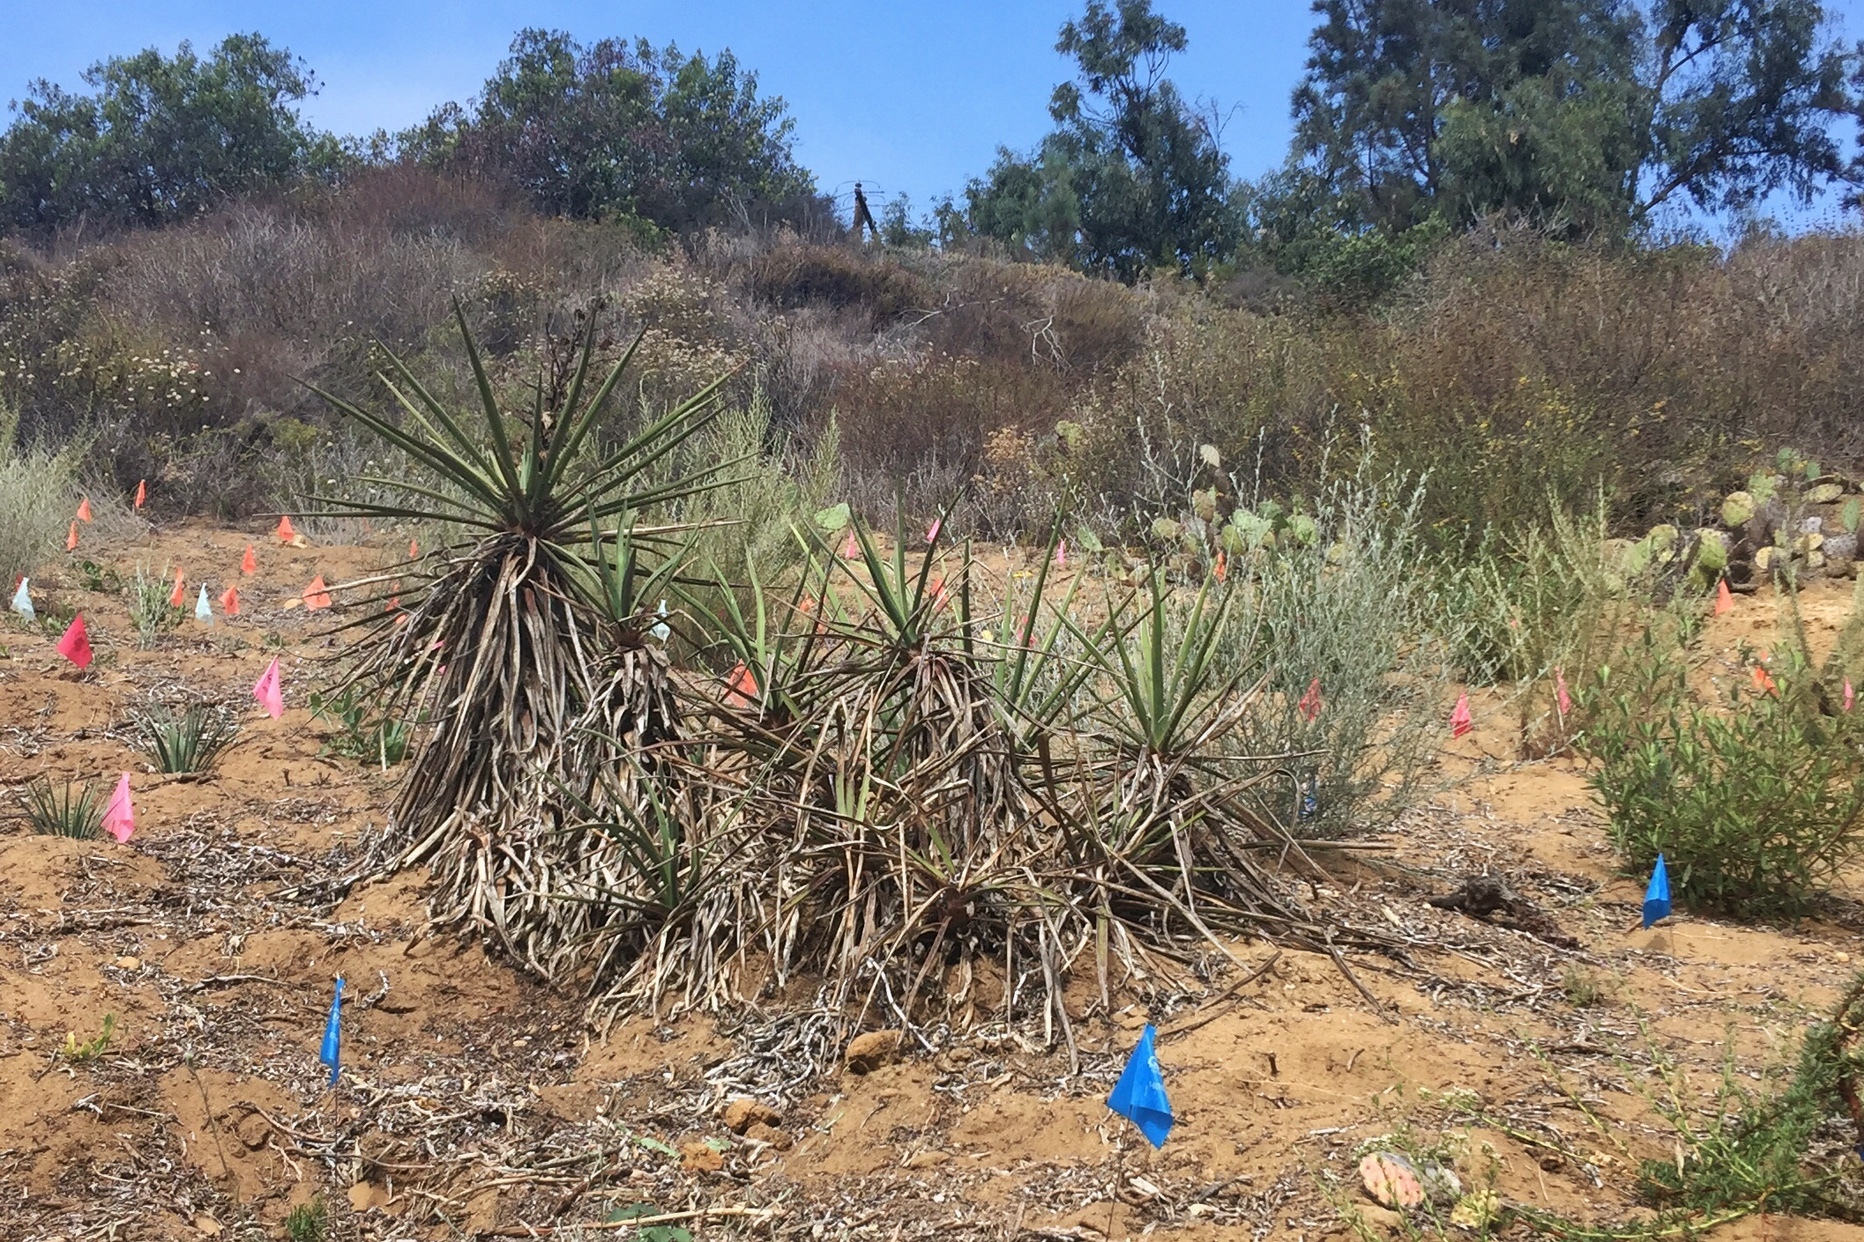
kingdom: Plantae
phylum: Tracheophyta
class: Liliopsida
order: Asparagales
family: Asparagaceae
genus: Yucca
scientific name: Yucca schidigera
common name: Mojave yucca
